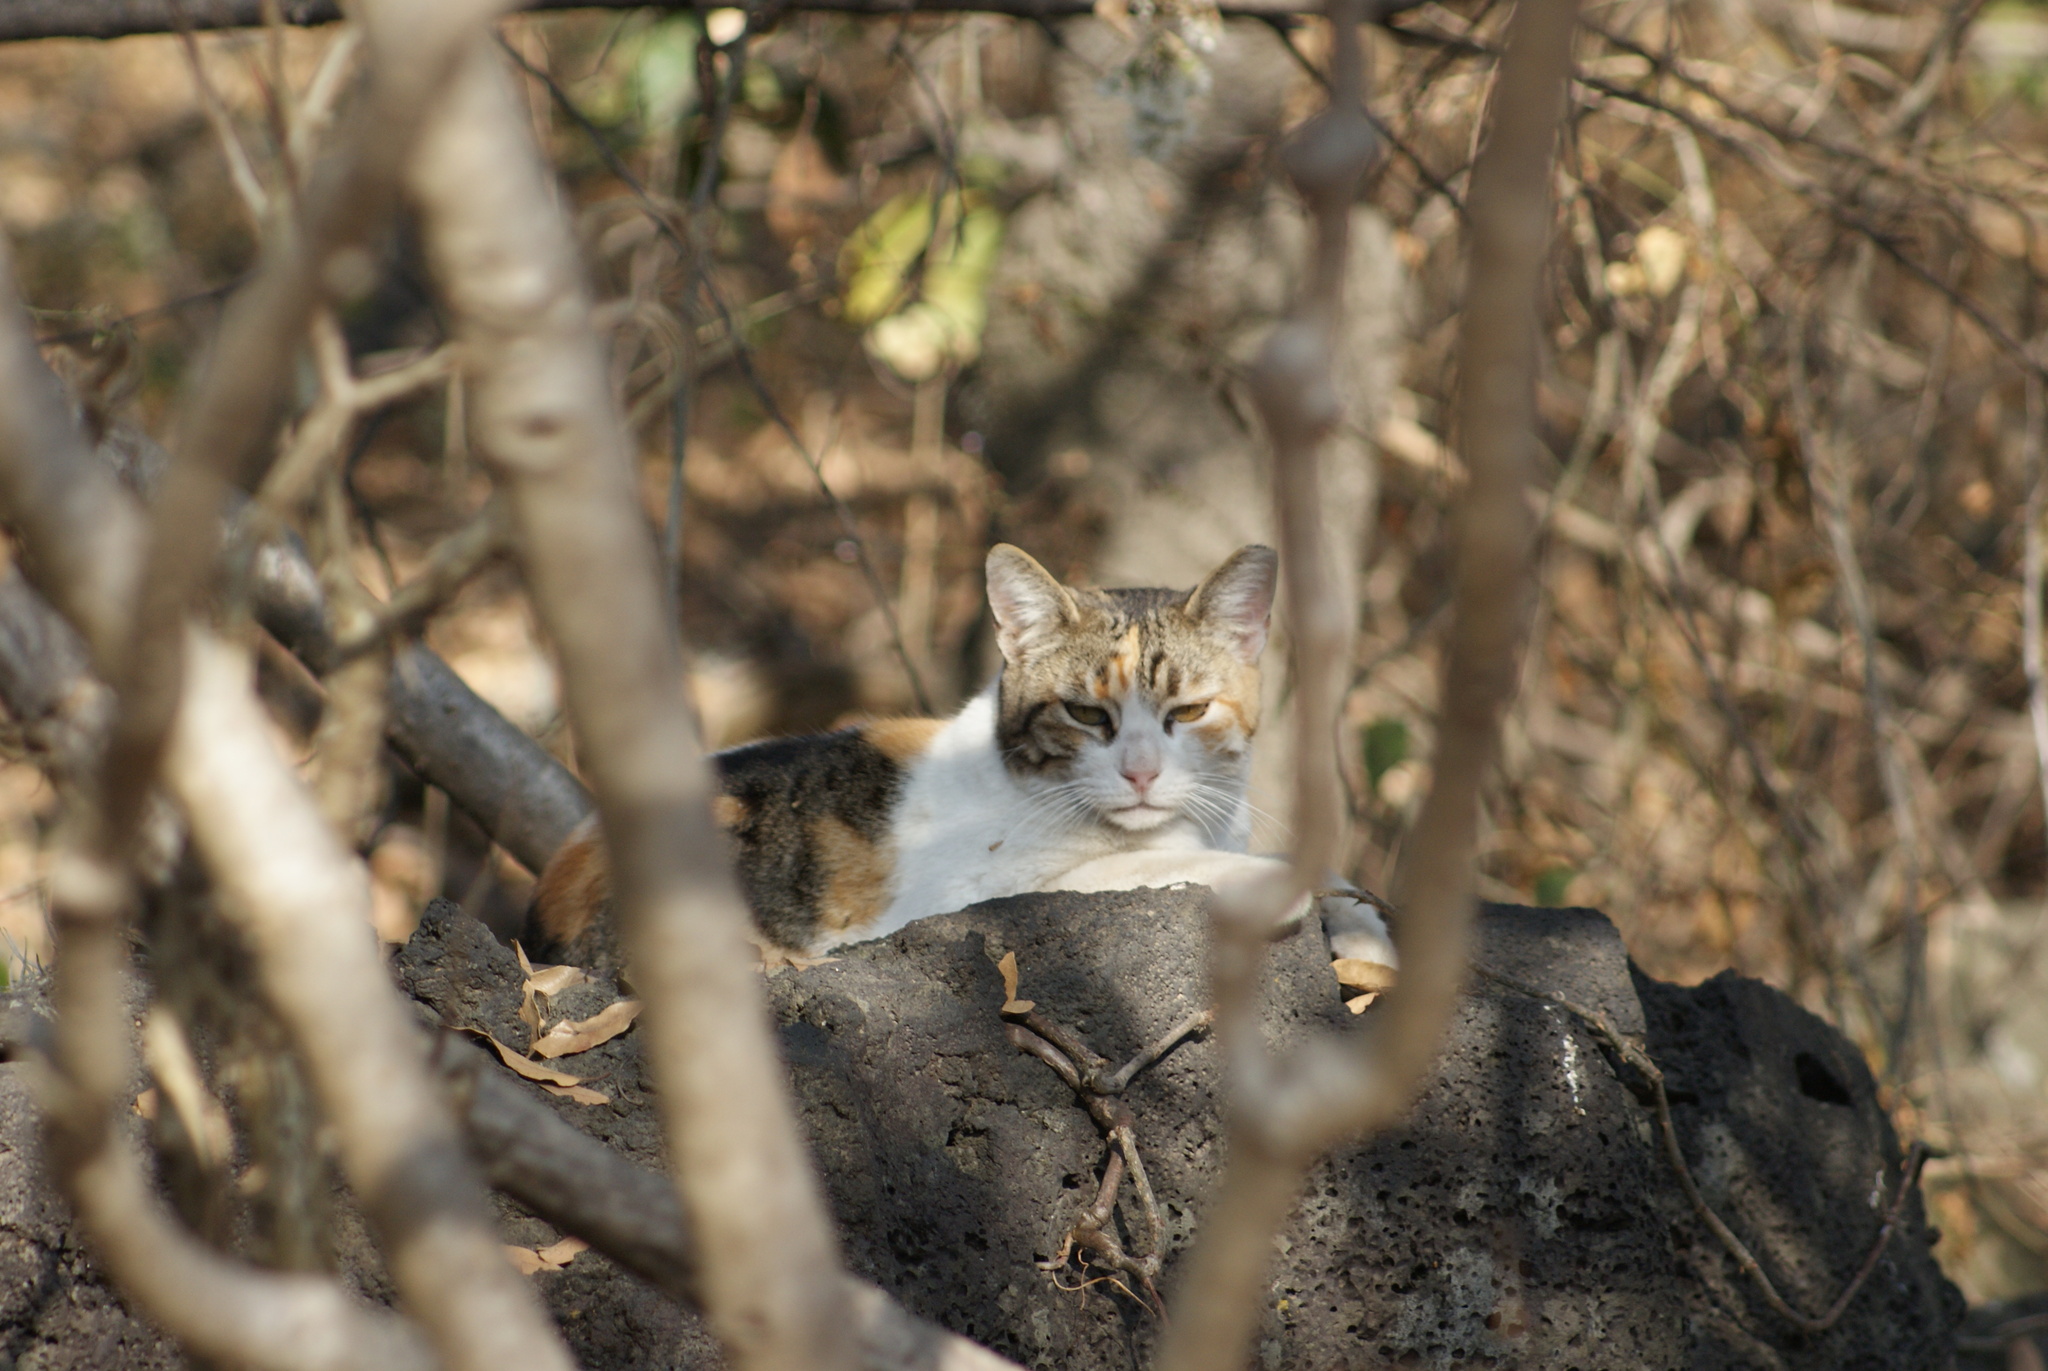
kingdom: Animalia
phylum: Chordata
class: Mammalia
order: Carnivora
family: Felidae
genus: Felis
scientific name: Felis catus
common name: Domestic cat
